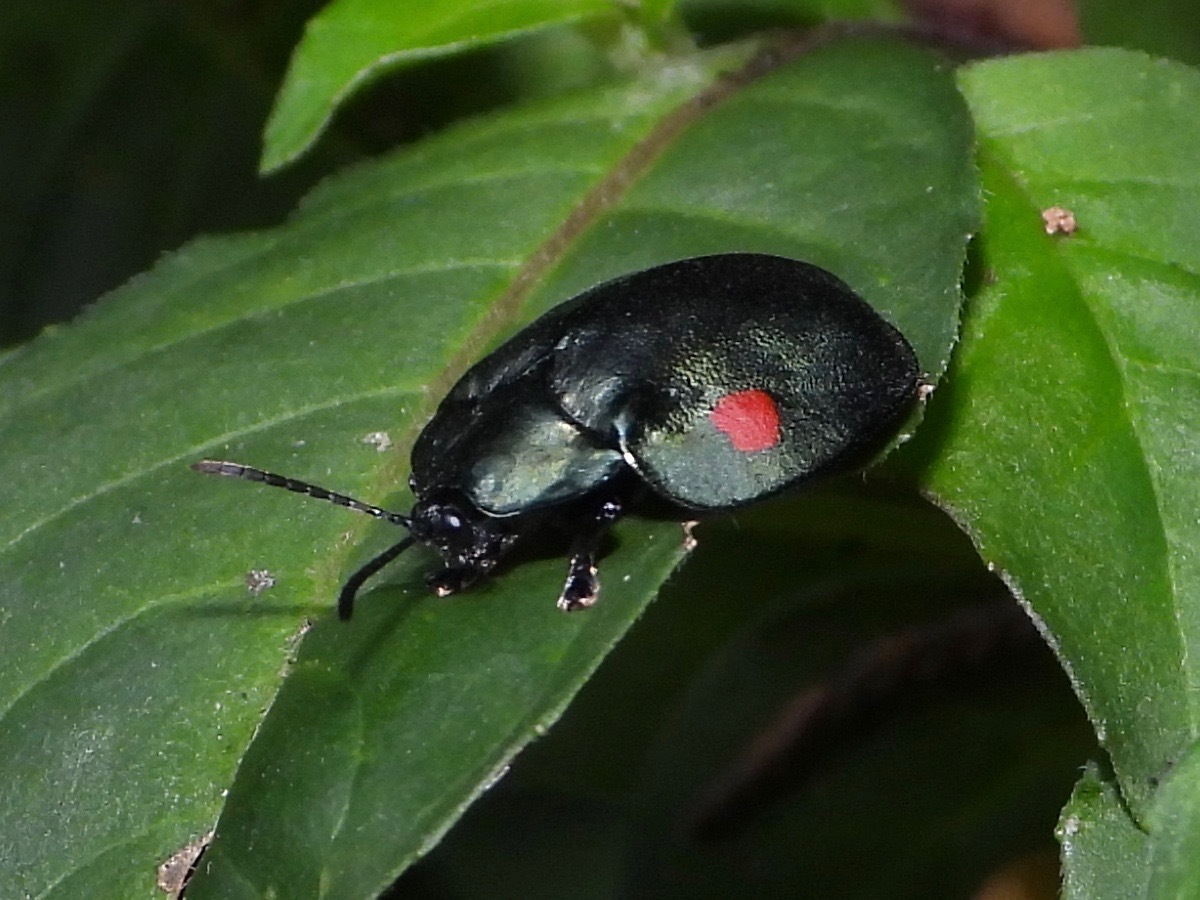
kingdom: Animalia
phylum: Arthropoda
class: Insecta
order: Coleoptera
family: Chrysomelidae
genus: Stolas
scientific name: Stolas
